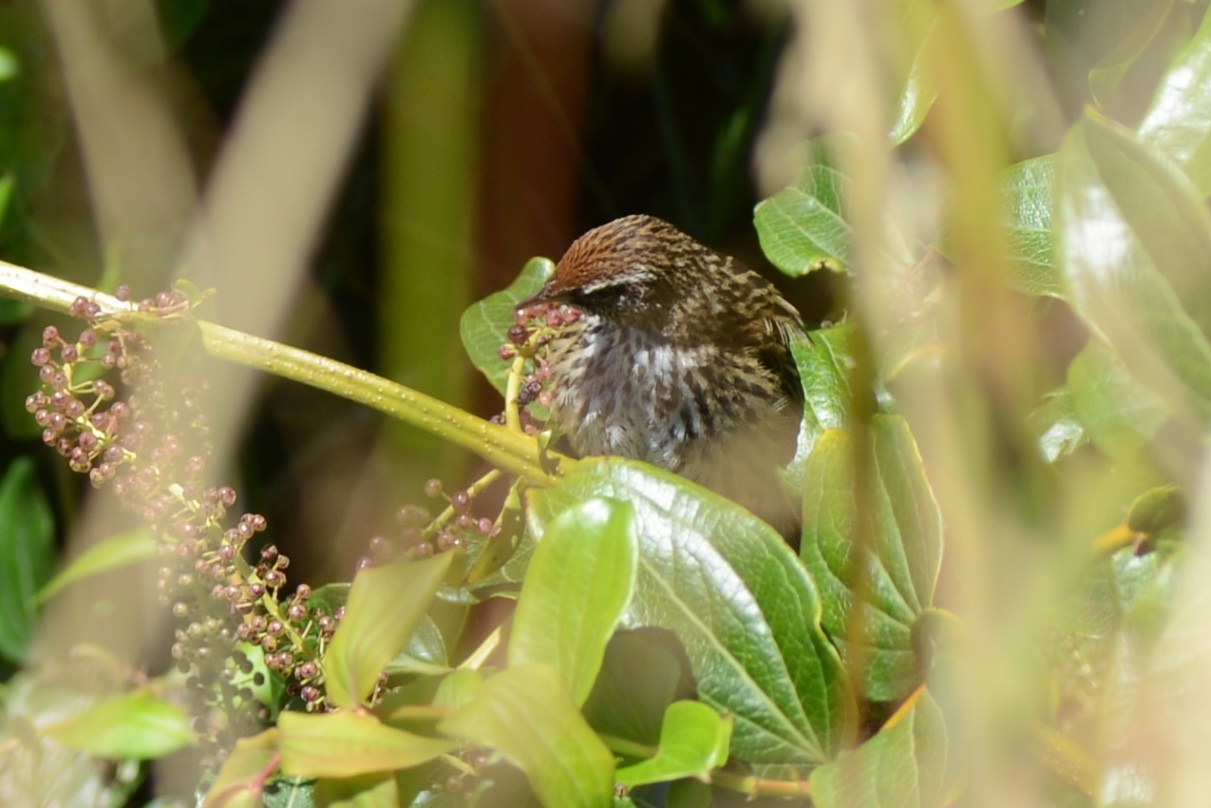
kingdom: Animalia
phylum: Chordata
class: Aves
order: Passeriformes
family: Locustellidae
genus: Poodytes
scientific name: Poodytes punctatus
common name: New zealand fernbird
